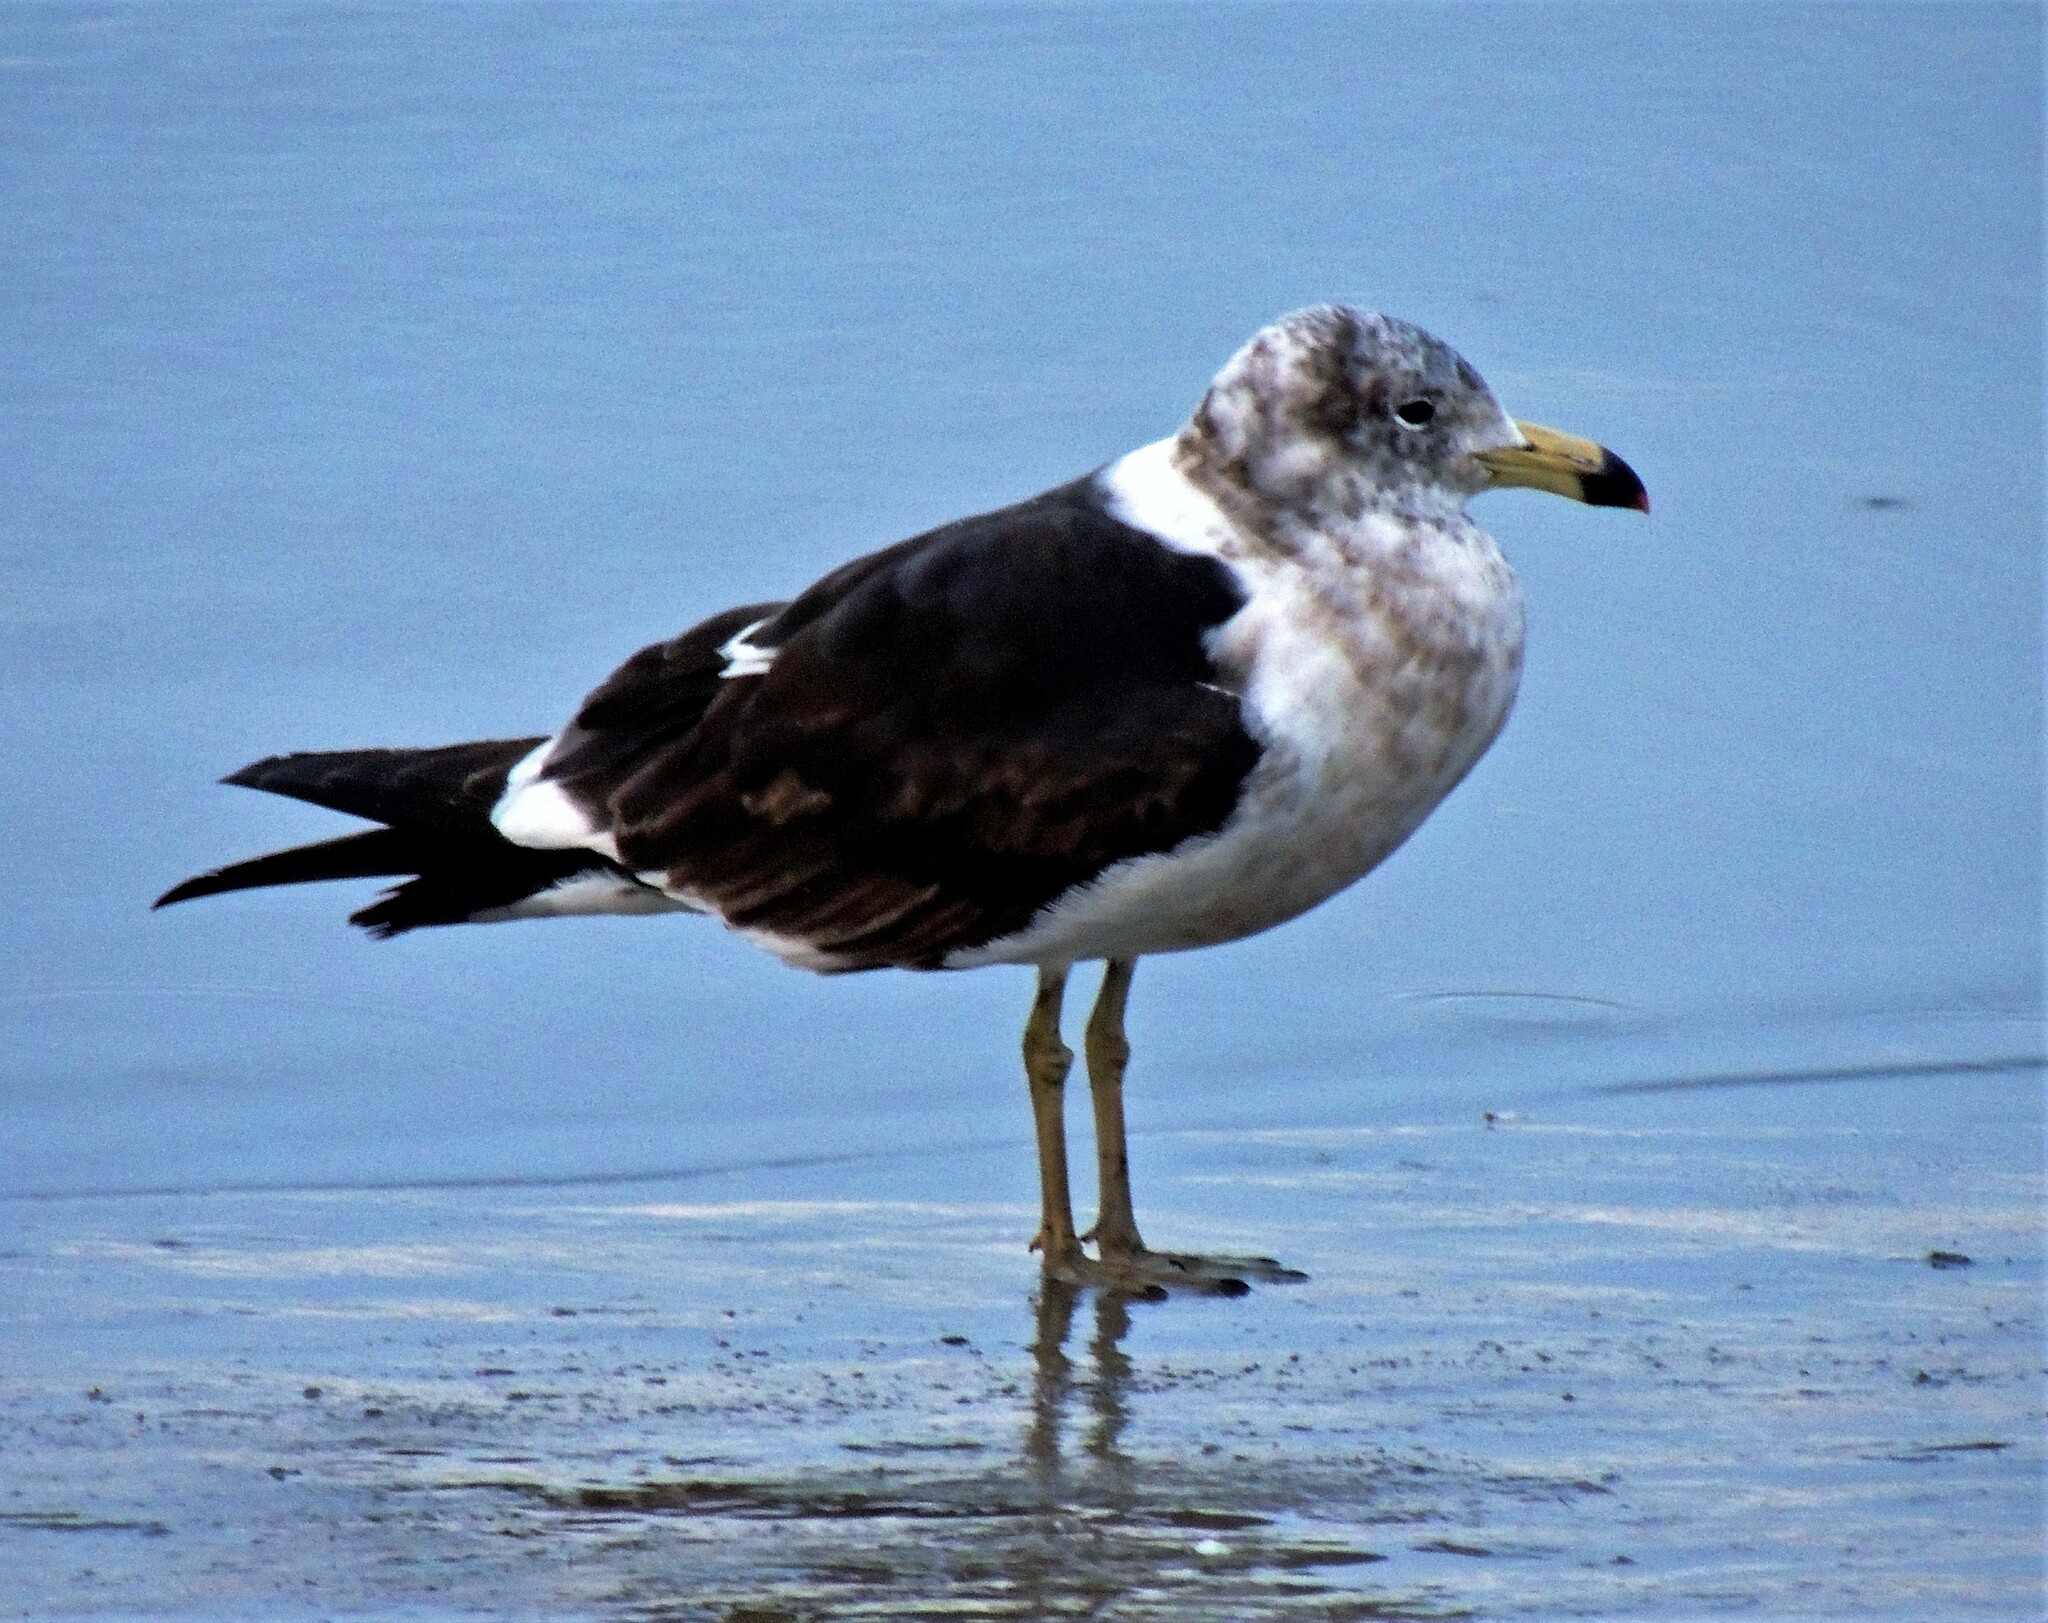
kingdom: Animalia
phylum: Chordata
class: Aves
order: Charadriiformes
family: Laridae
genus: Larus
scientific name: Larus atlanticus
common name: Olrog's gull
